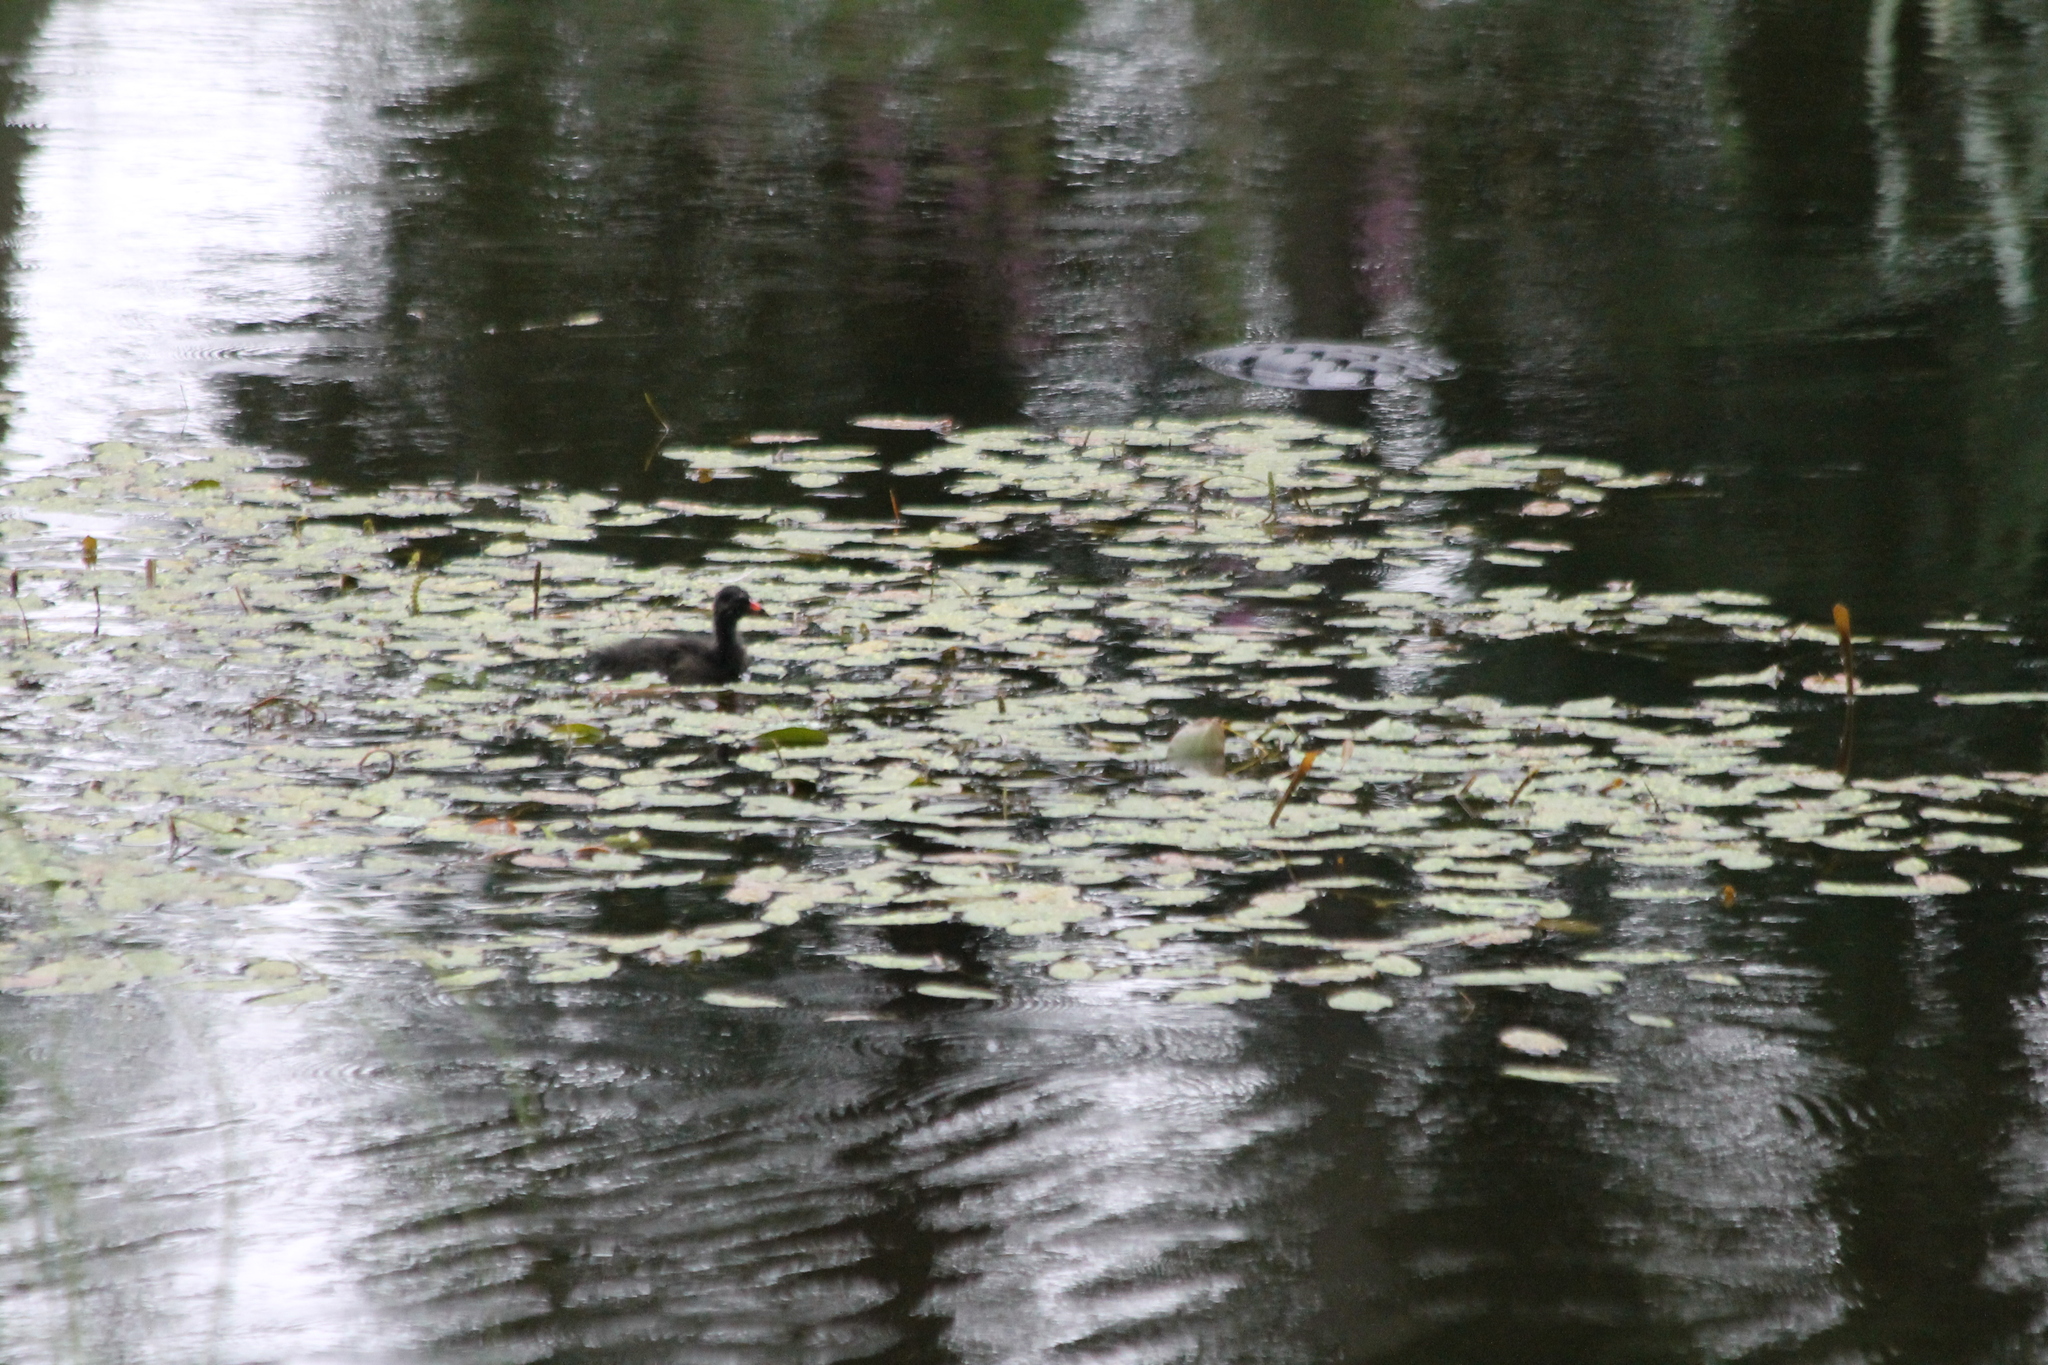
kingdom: Animalia
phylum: Chordata
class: Aves
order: Gruiformes
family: Rallidae
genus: Gallinula
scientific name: Gallinula chloropus
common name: Common moorhen
